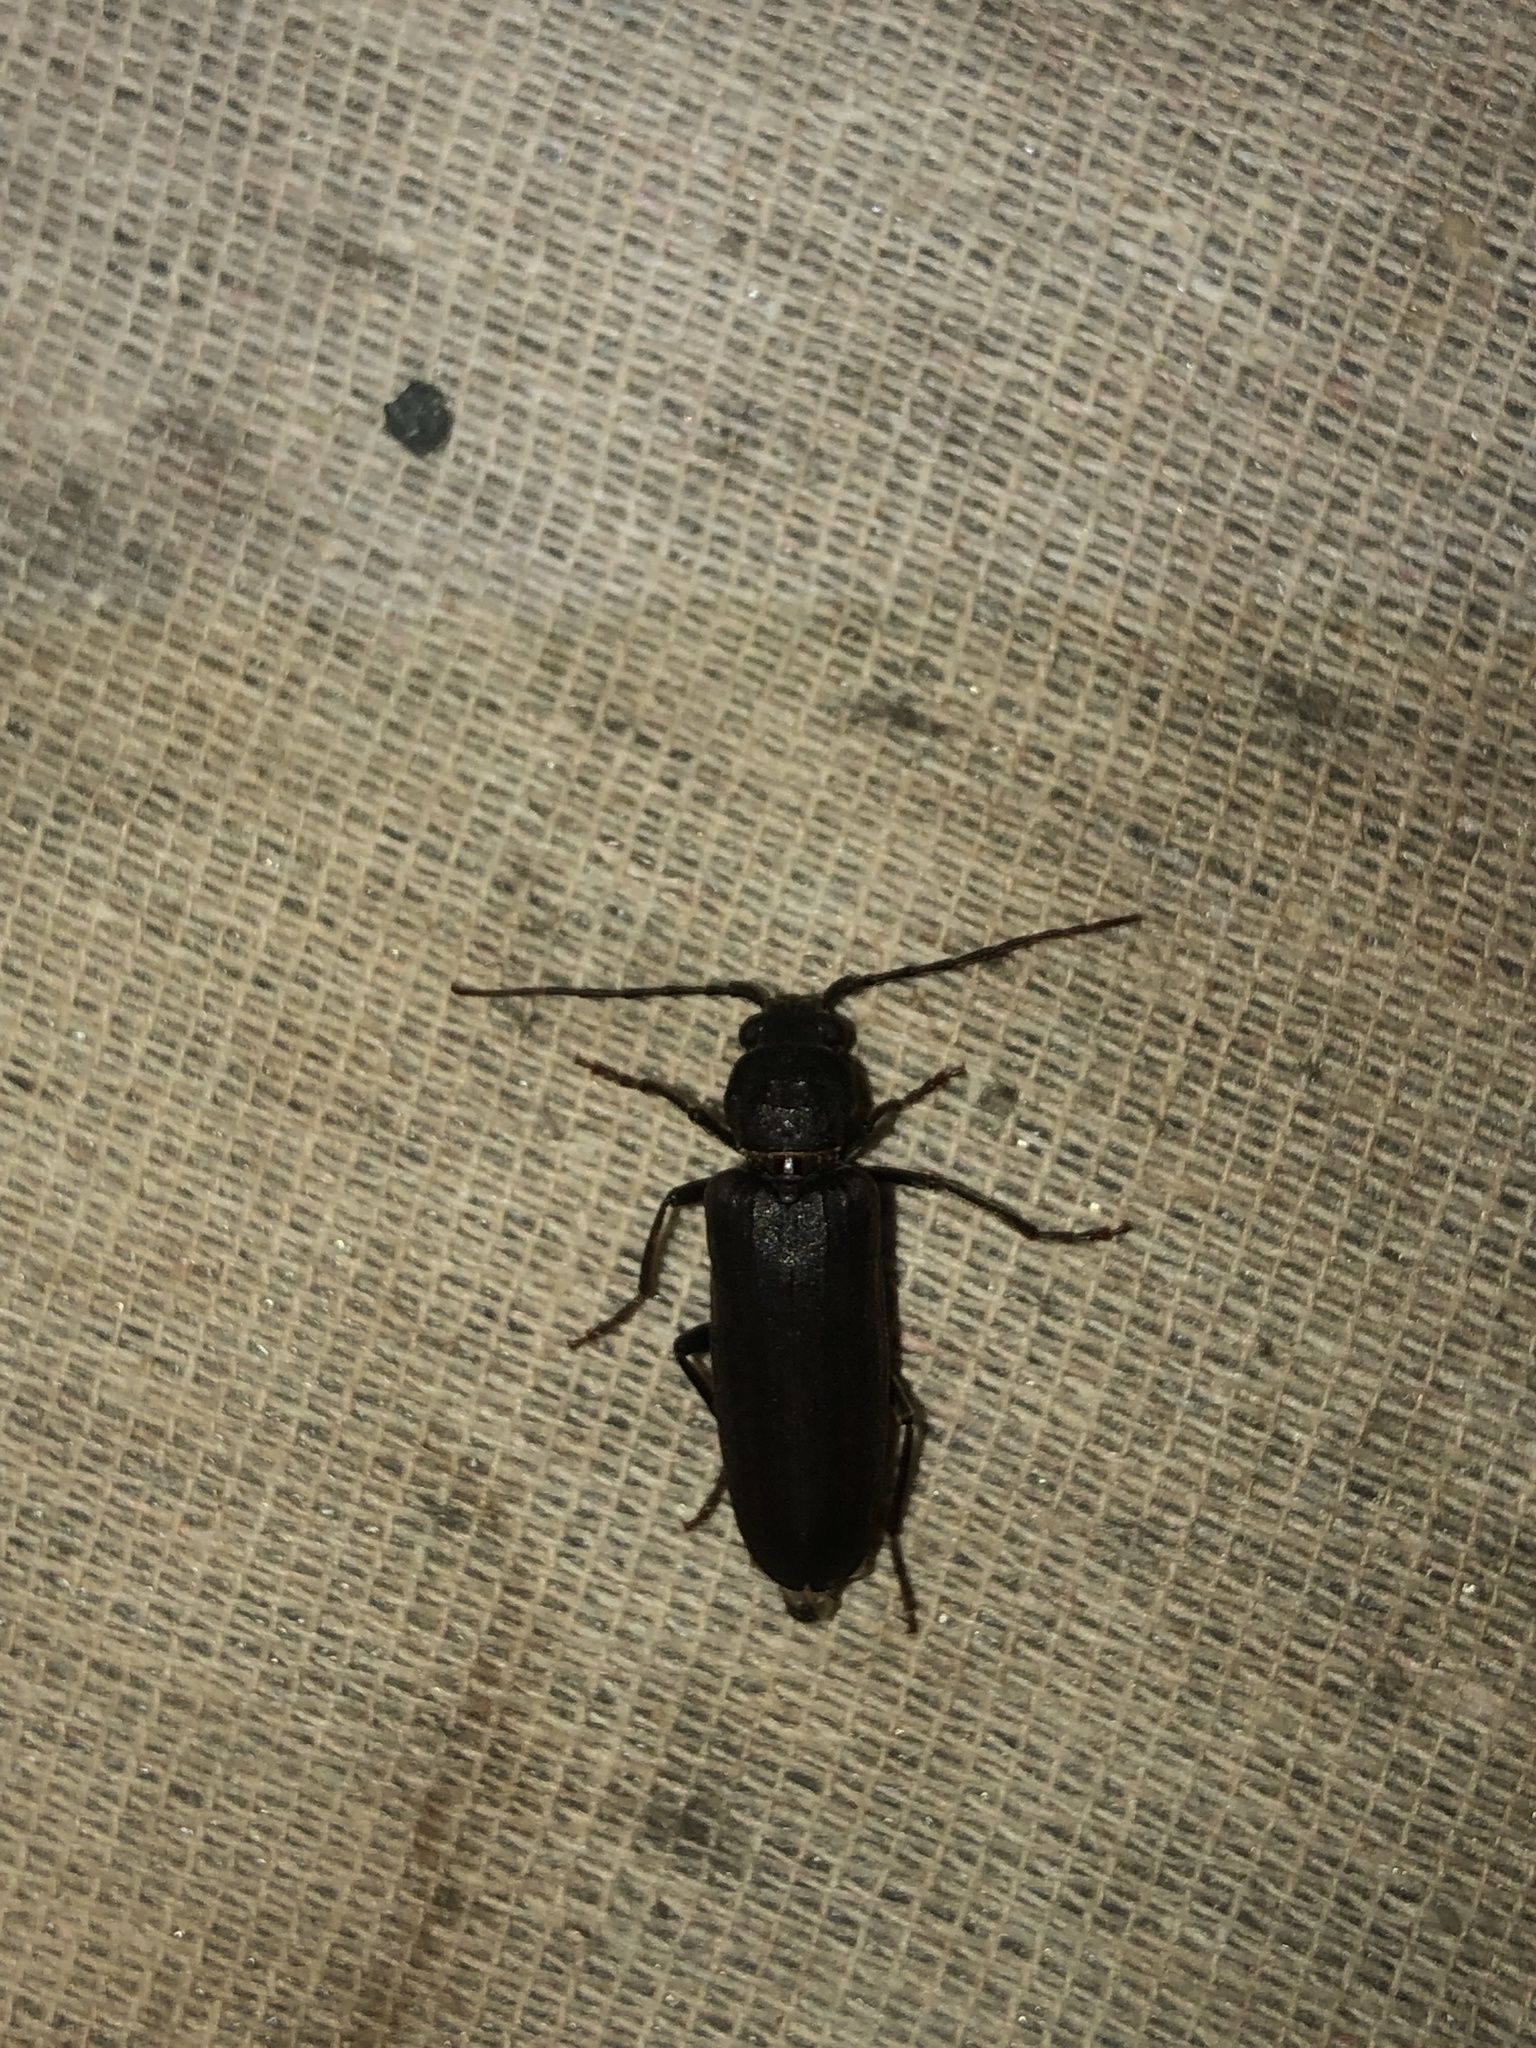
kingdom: Animalia
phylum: Arthropoda
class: Insecta
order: Coleoptera
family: Cerambycidae
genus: Arhopalus
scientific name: Arhopalus ferus
